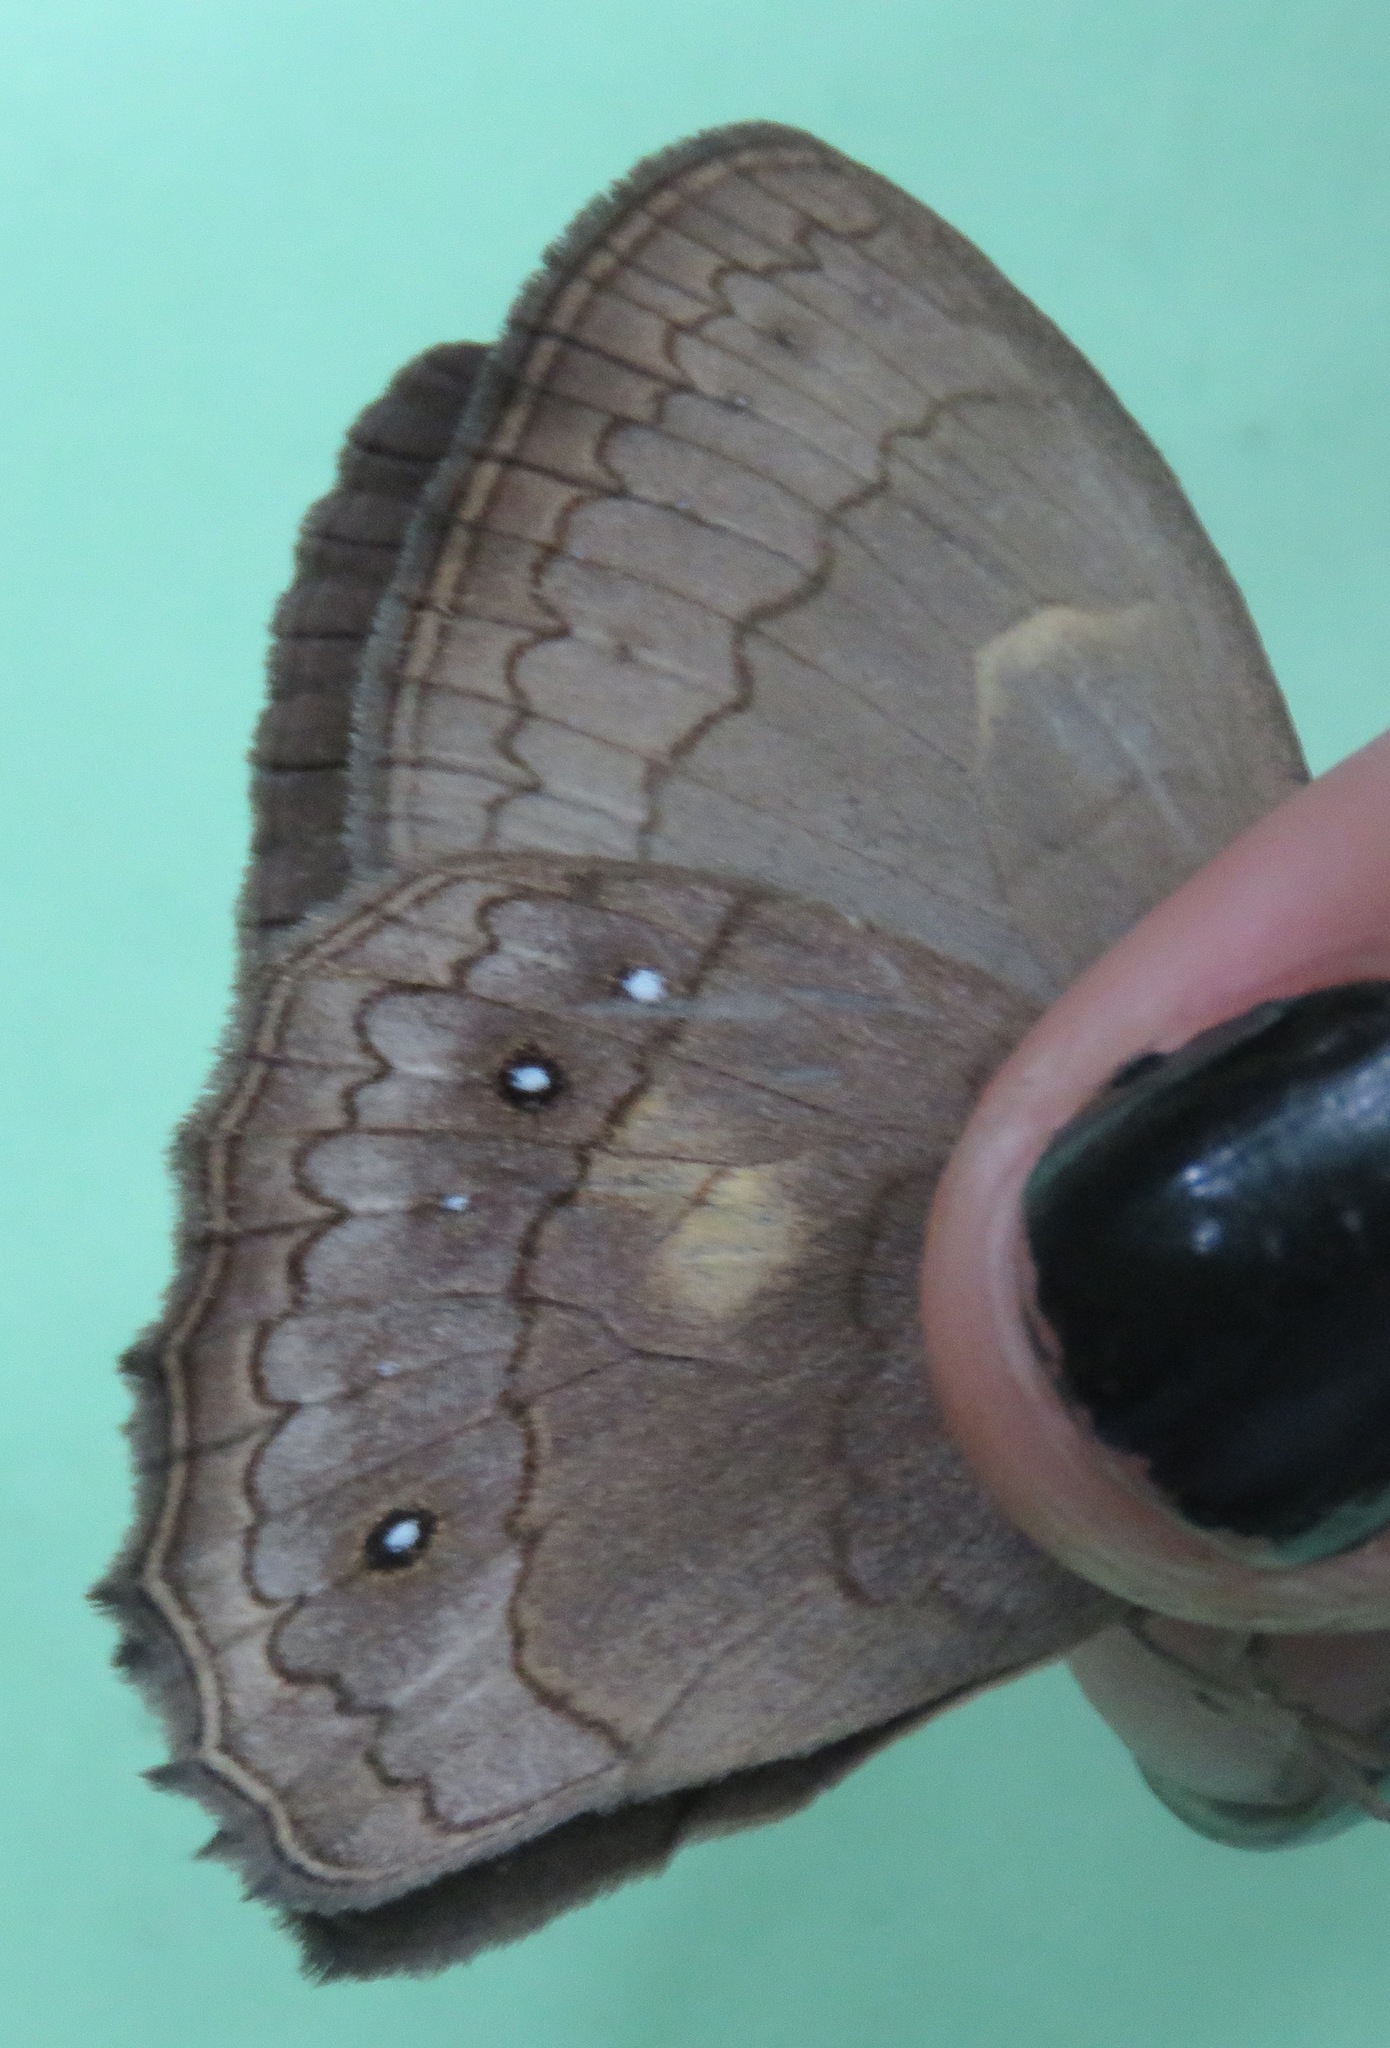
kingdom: Animalia
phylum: Arthropoda
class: Insecta
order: Lepidoptera
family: Nymphalidae
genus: Taygetina
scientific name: Taygetina kerea
